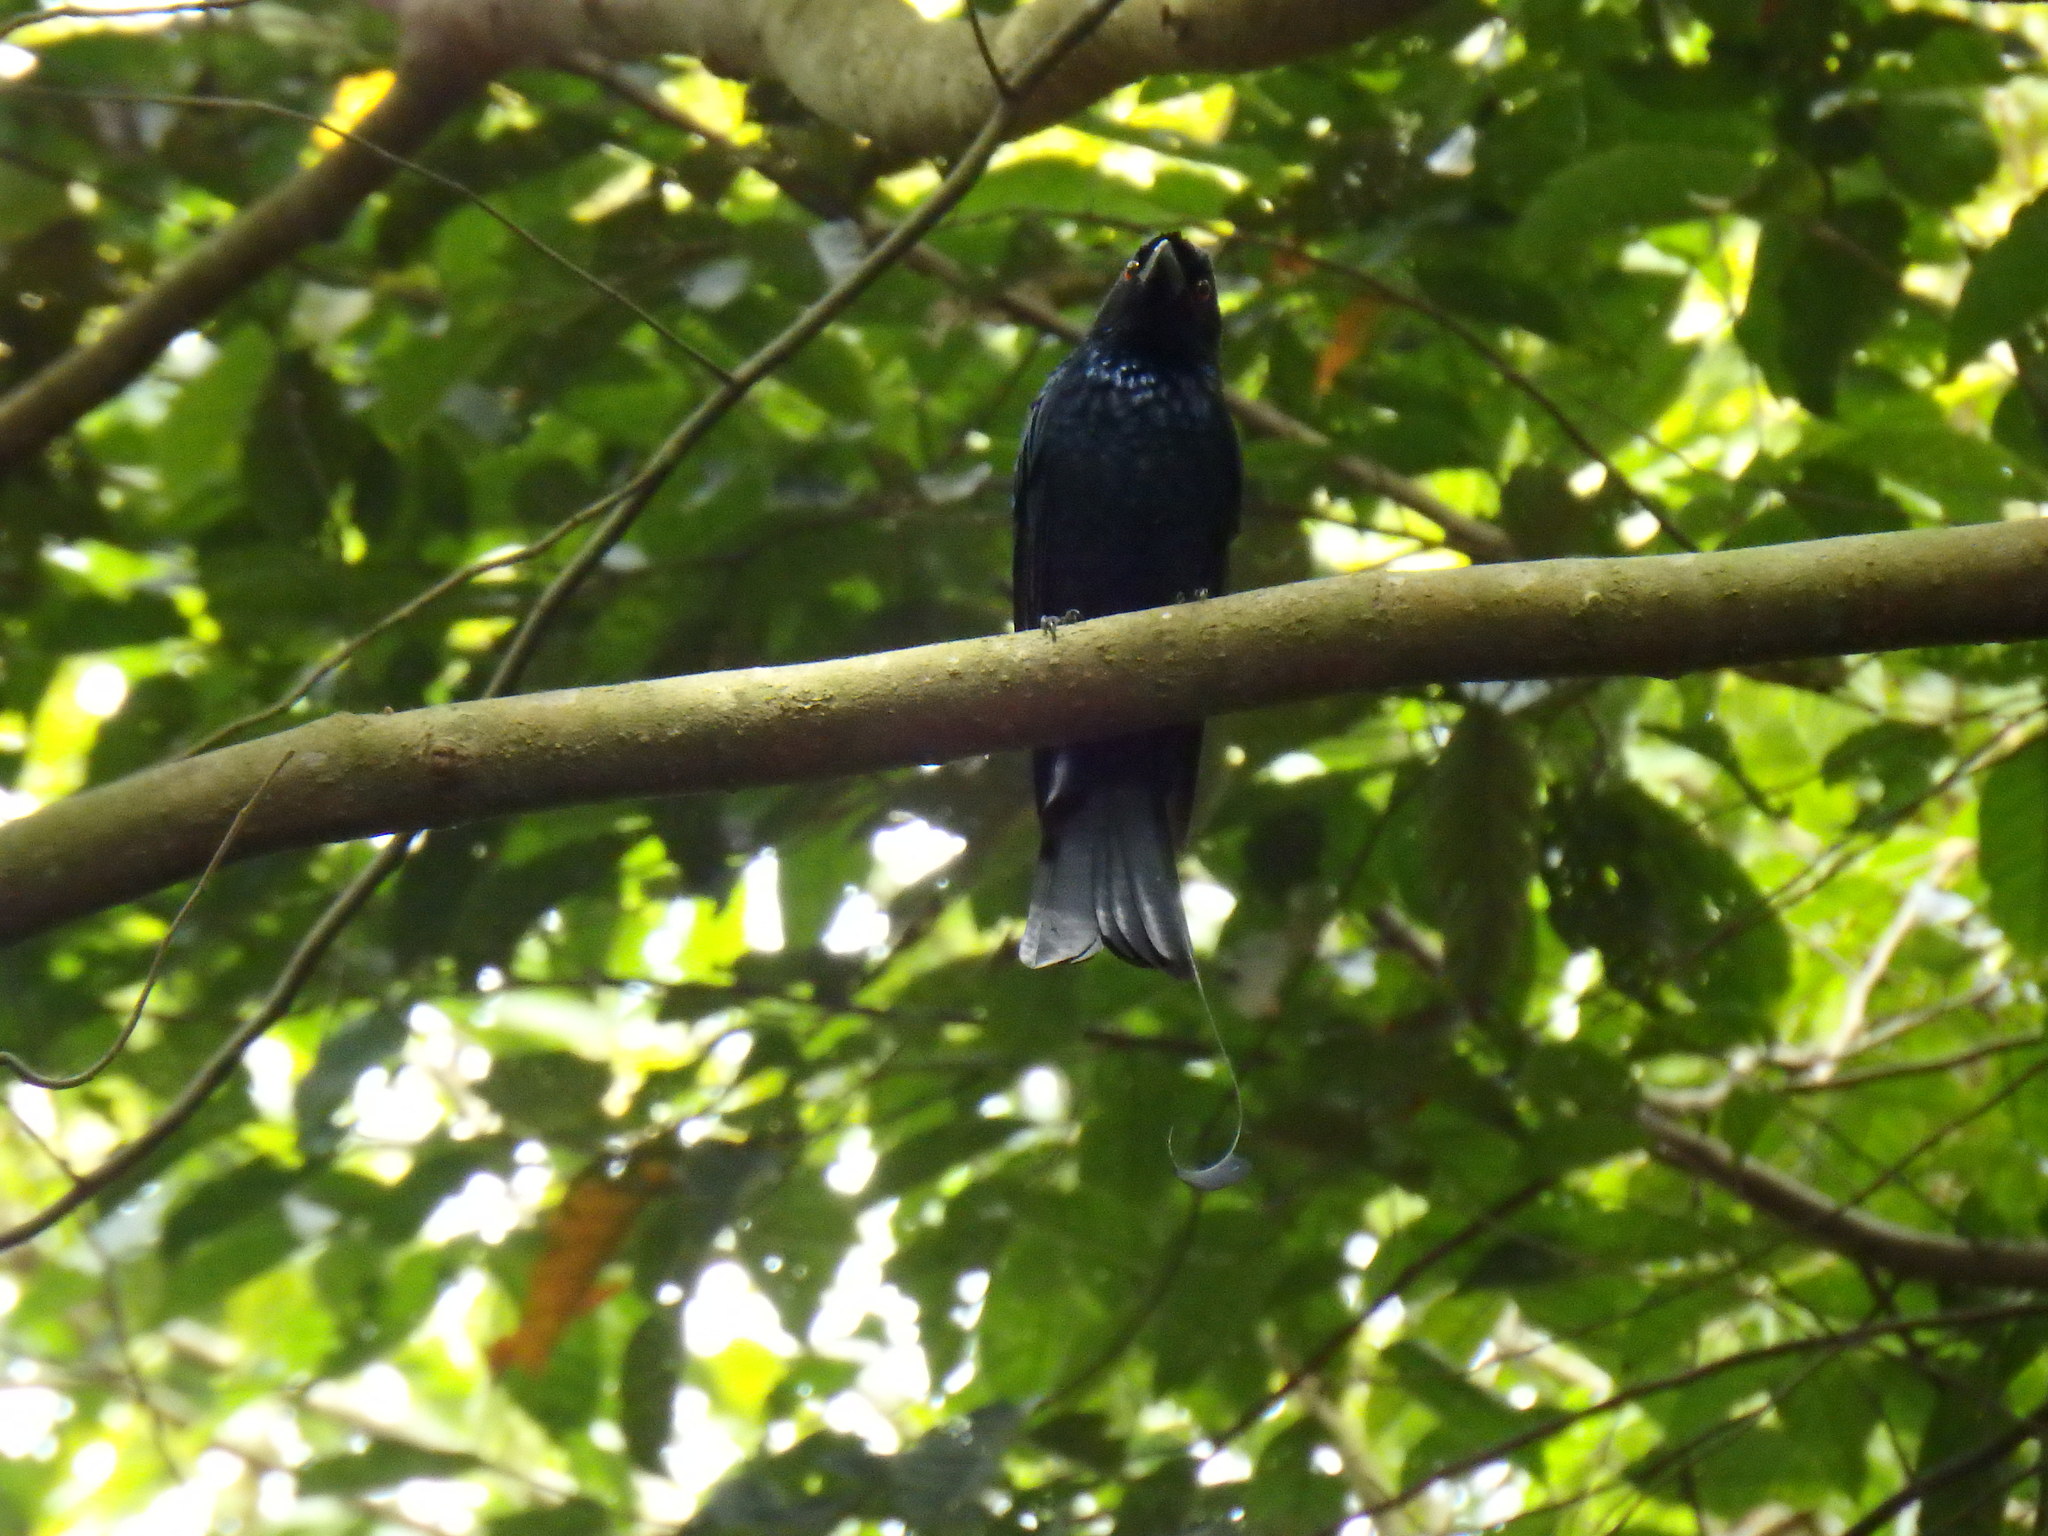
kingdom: Animalia
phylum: Chordata
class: Aves
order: Passeriformes
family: Dicruridae
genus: Dicrurus
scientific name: Dicrurus paradiseus
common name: Greater racket-tailed drongo
